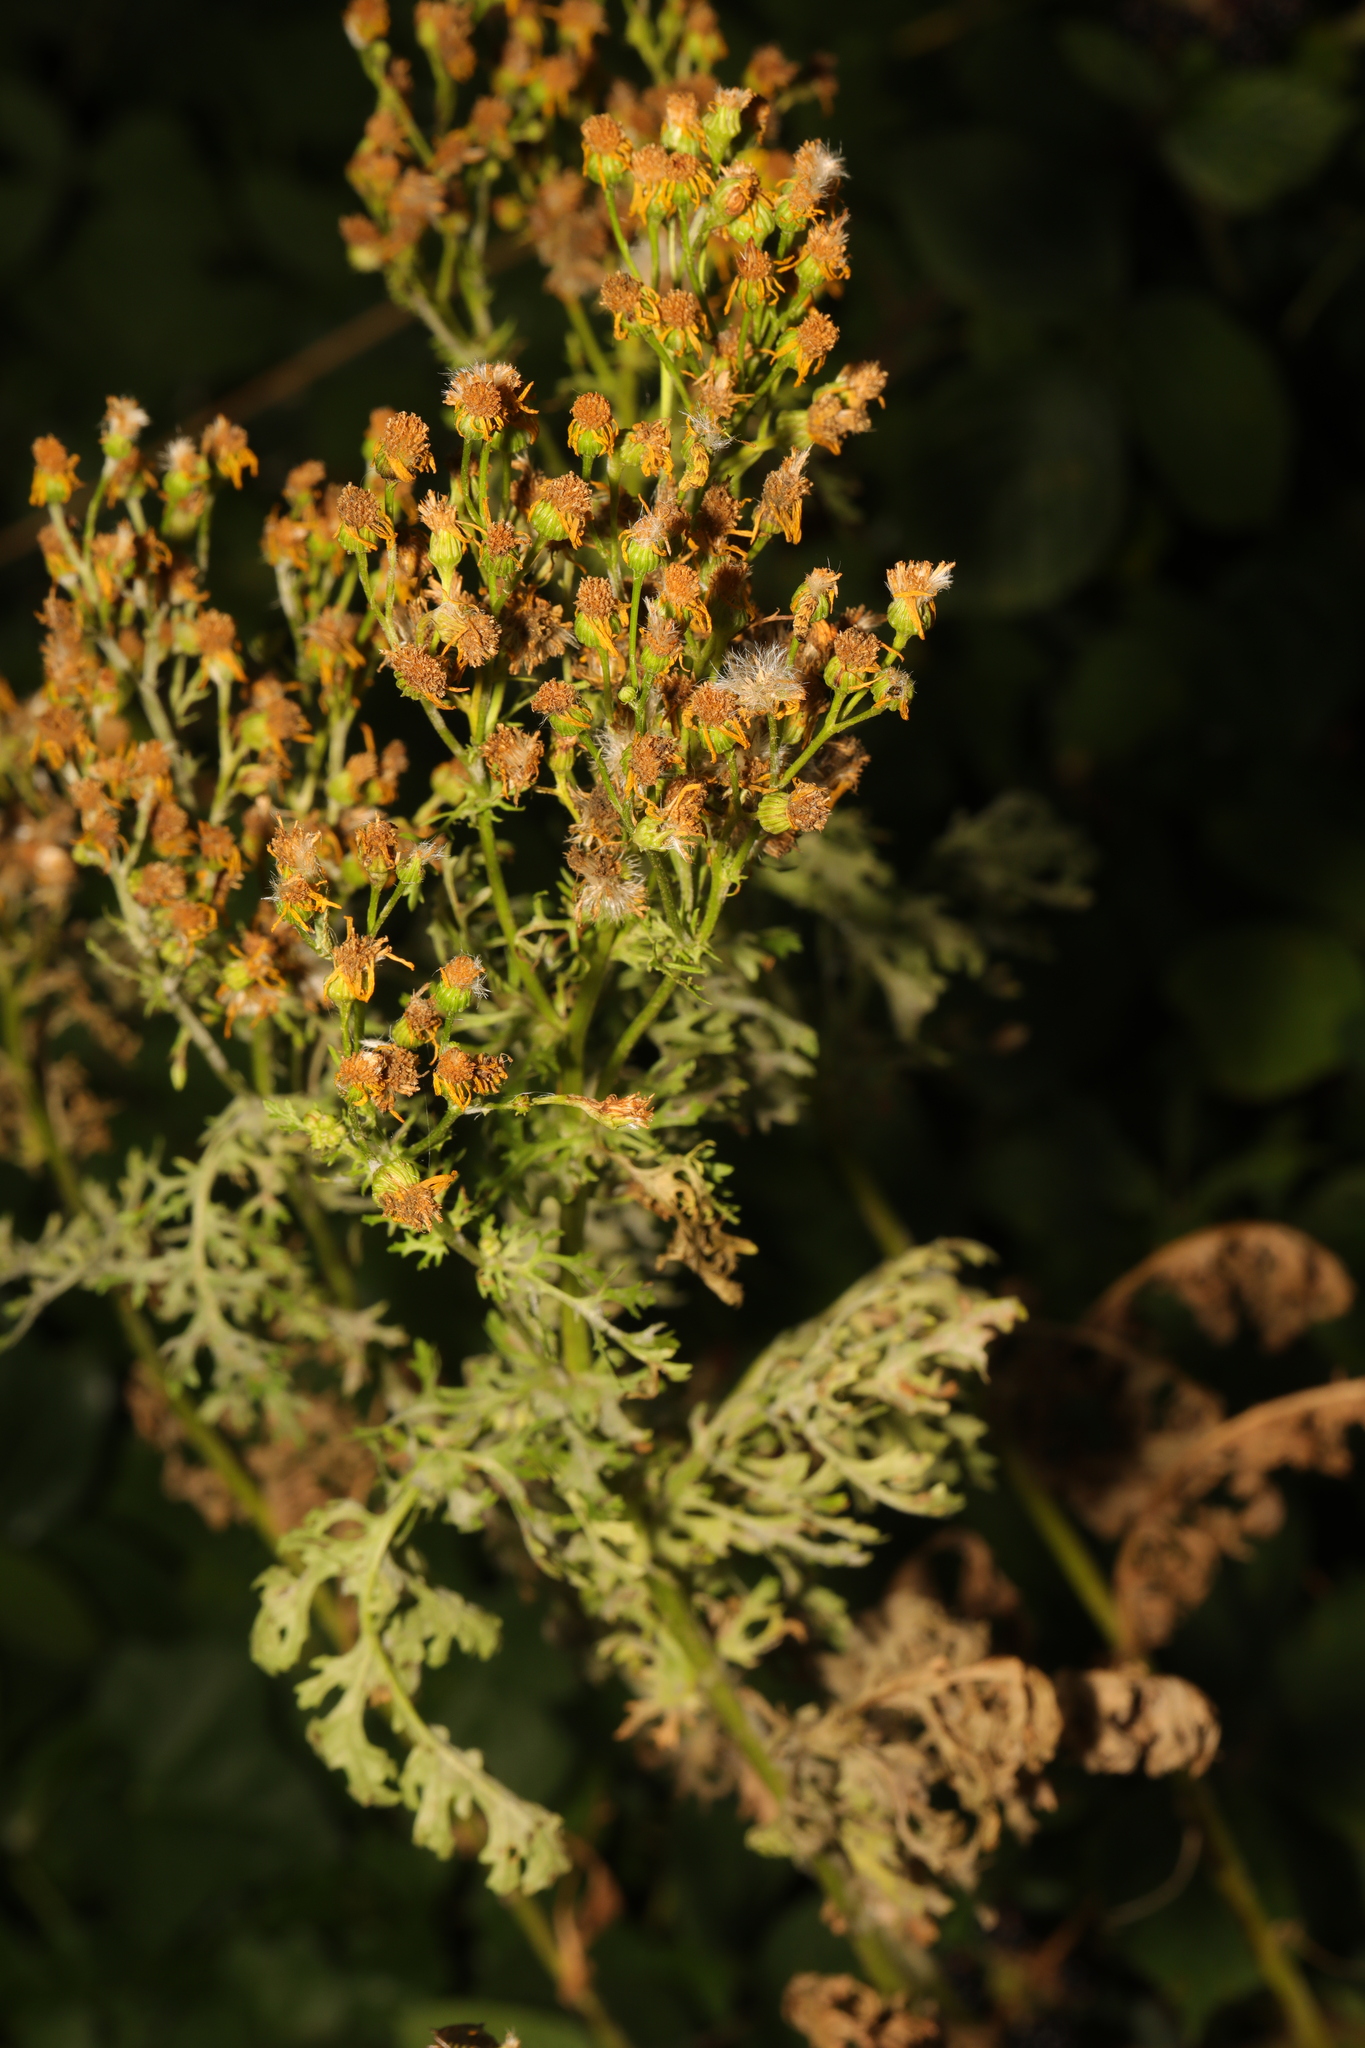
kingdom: Plantae
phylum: Tracheophyta
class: Magnoliopsida
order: Asterales
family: Asteraceae
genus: Jacobaea
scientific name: Jacobaea vulgaris
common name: Stinking willie
